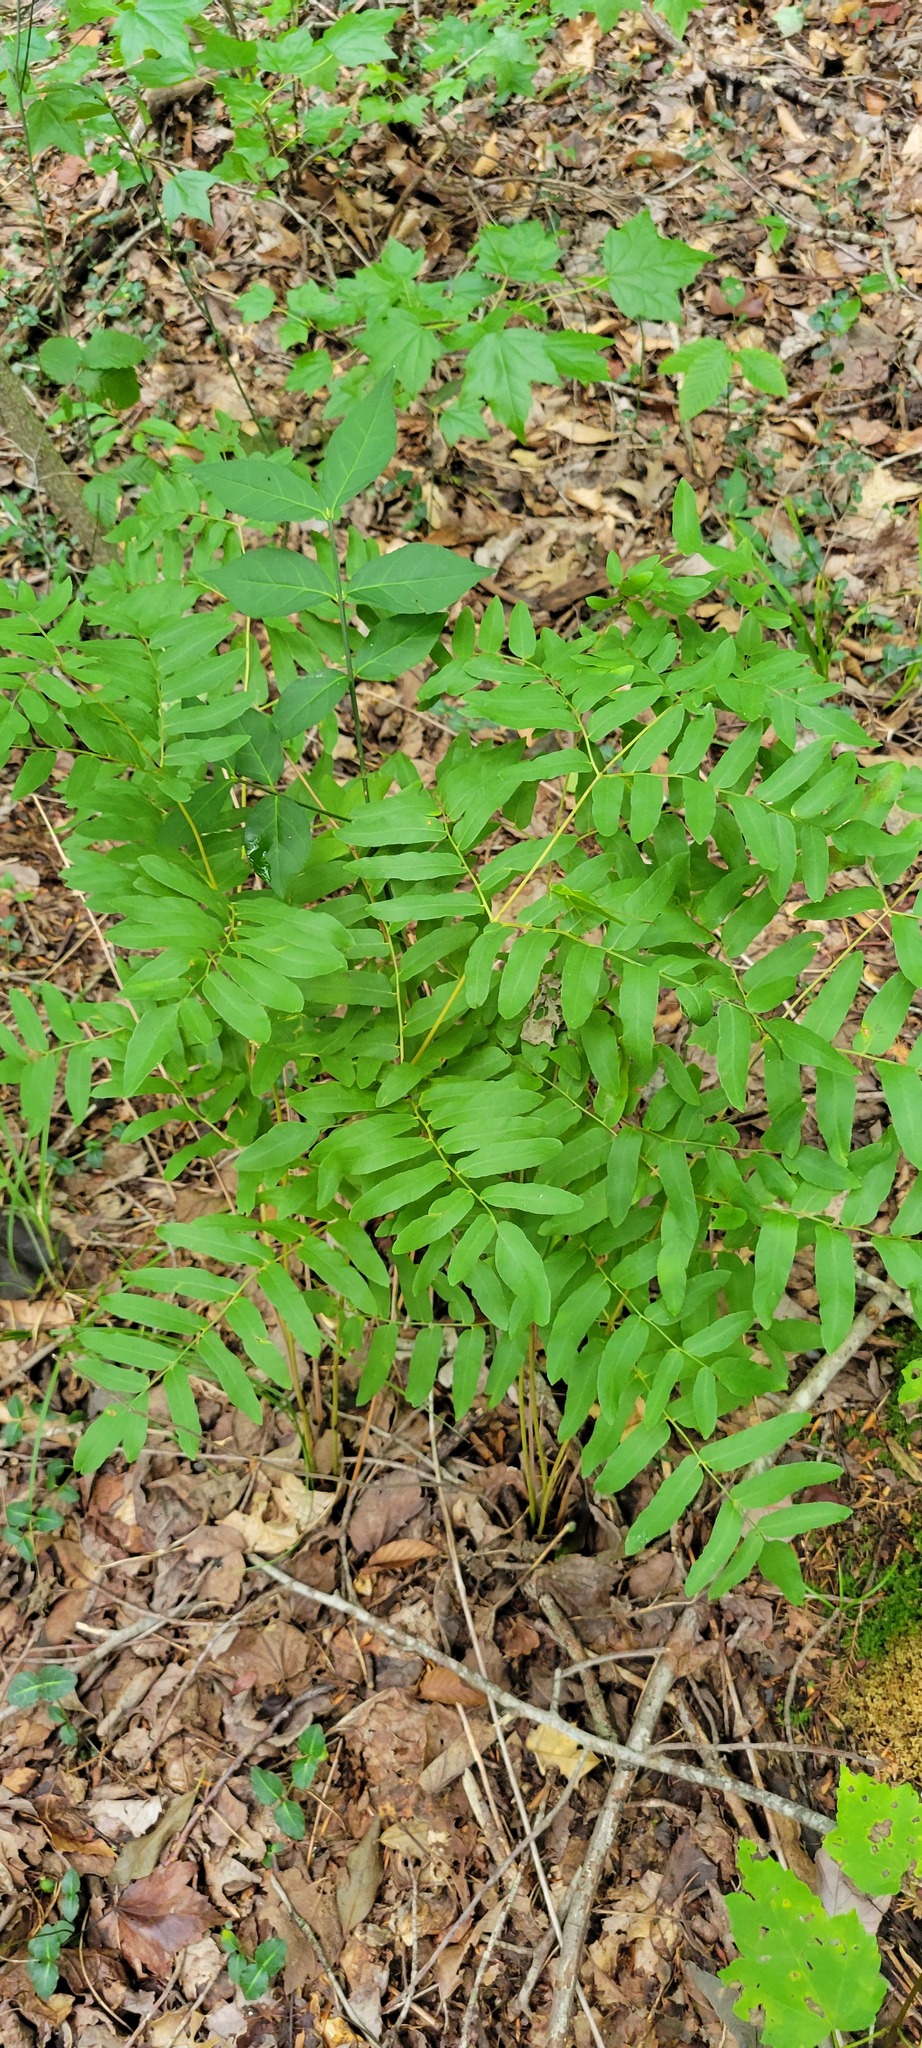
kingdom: Plantae
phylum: Tracheophyta
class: Polypodiopsida
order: Osmundales
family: Osmundaceae
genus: Osmunda
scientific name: Osmunda spectabilis
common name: American royal fern
